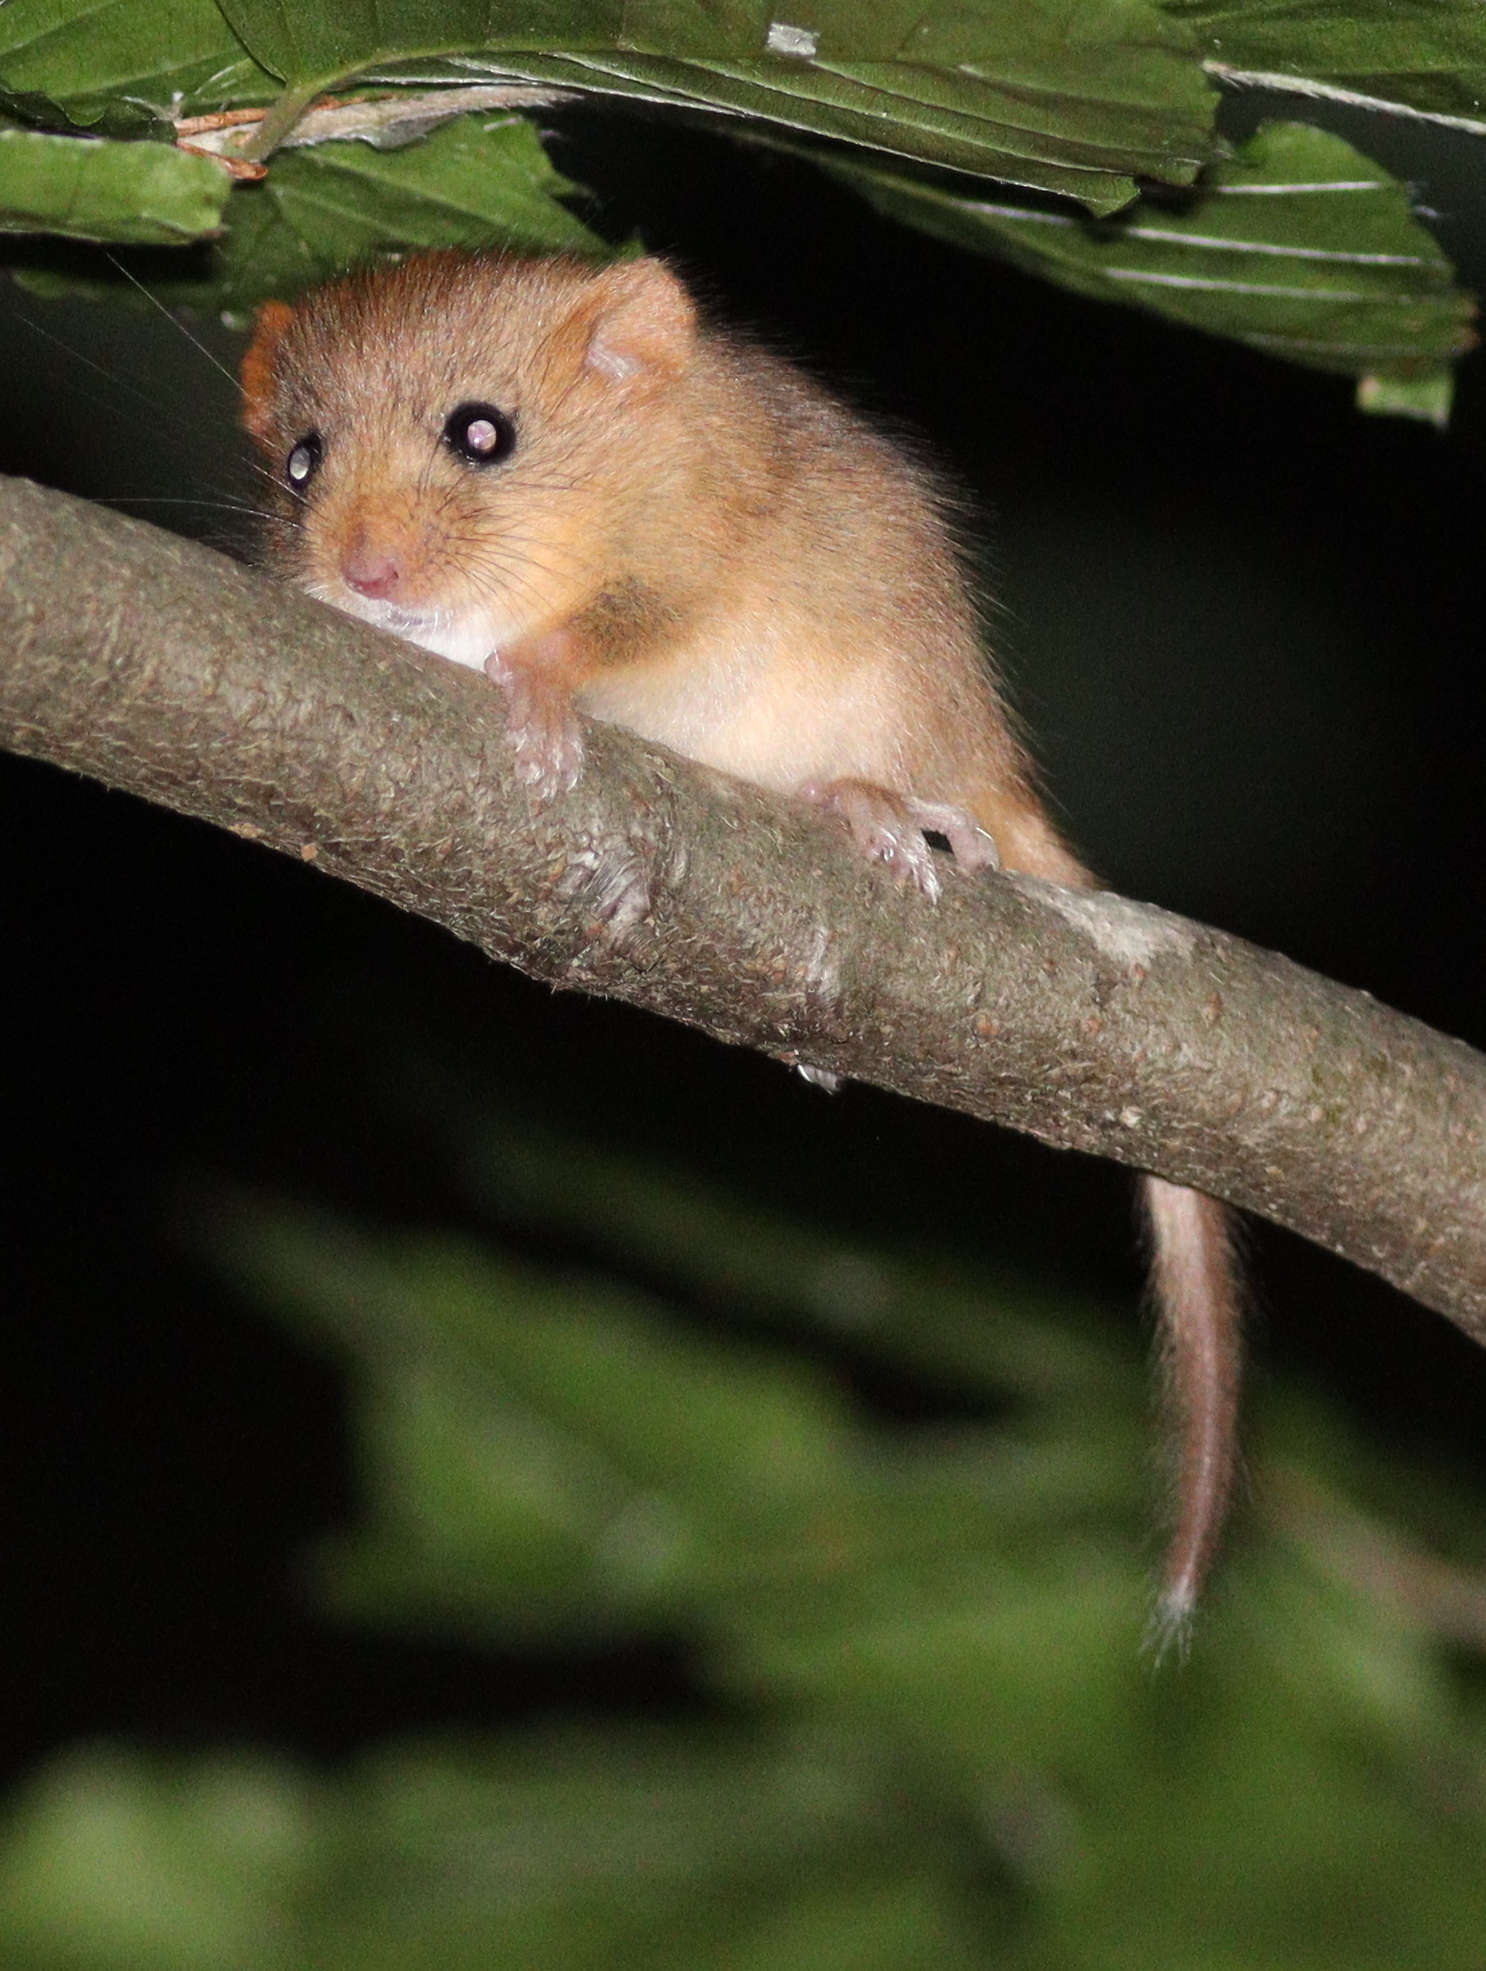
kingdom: Animalia
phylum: Chordata
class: Mammalia
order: Rodentia
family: Gliridae
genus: Muscardinus
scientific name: Muscardinus avellanarius
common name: Hazel dormouse
